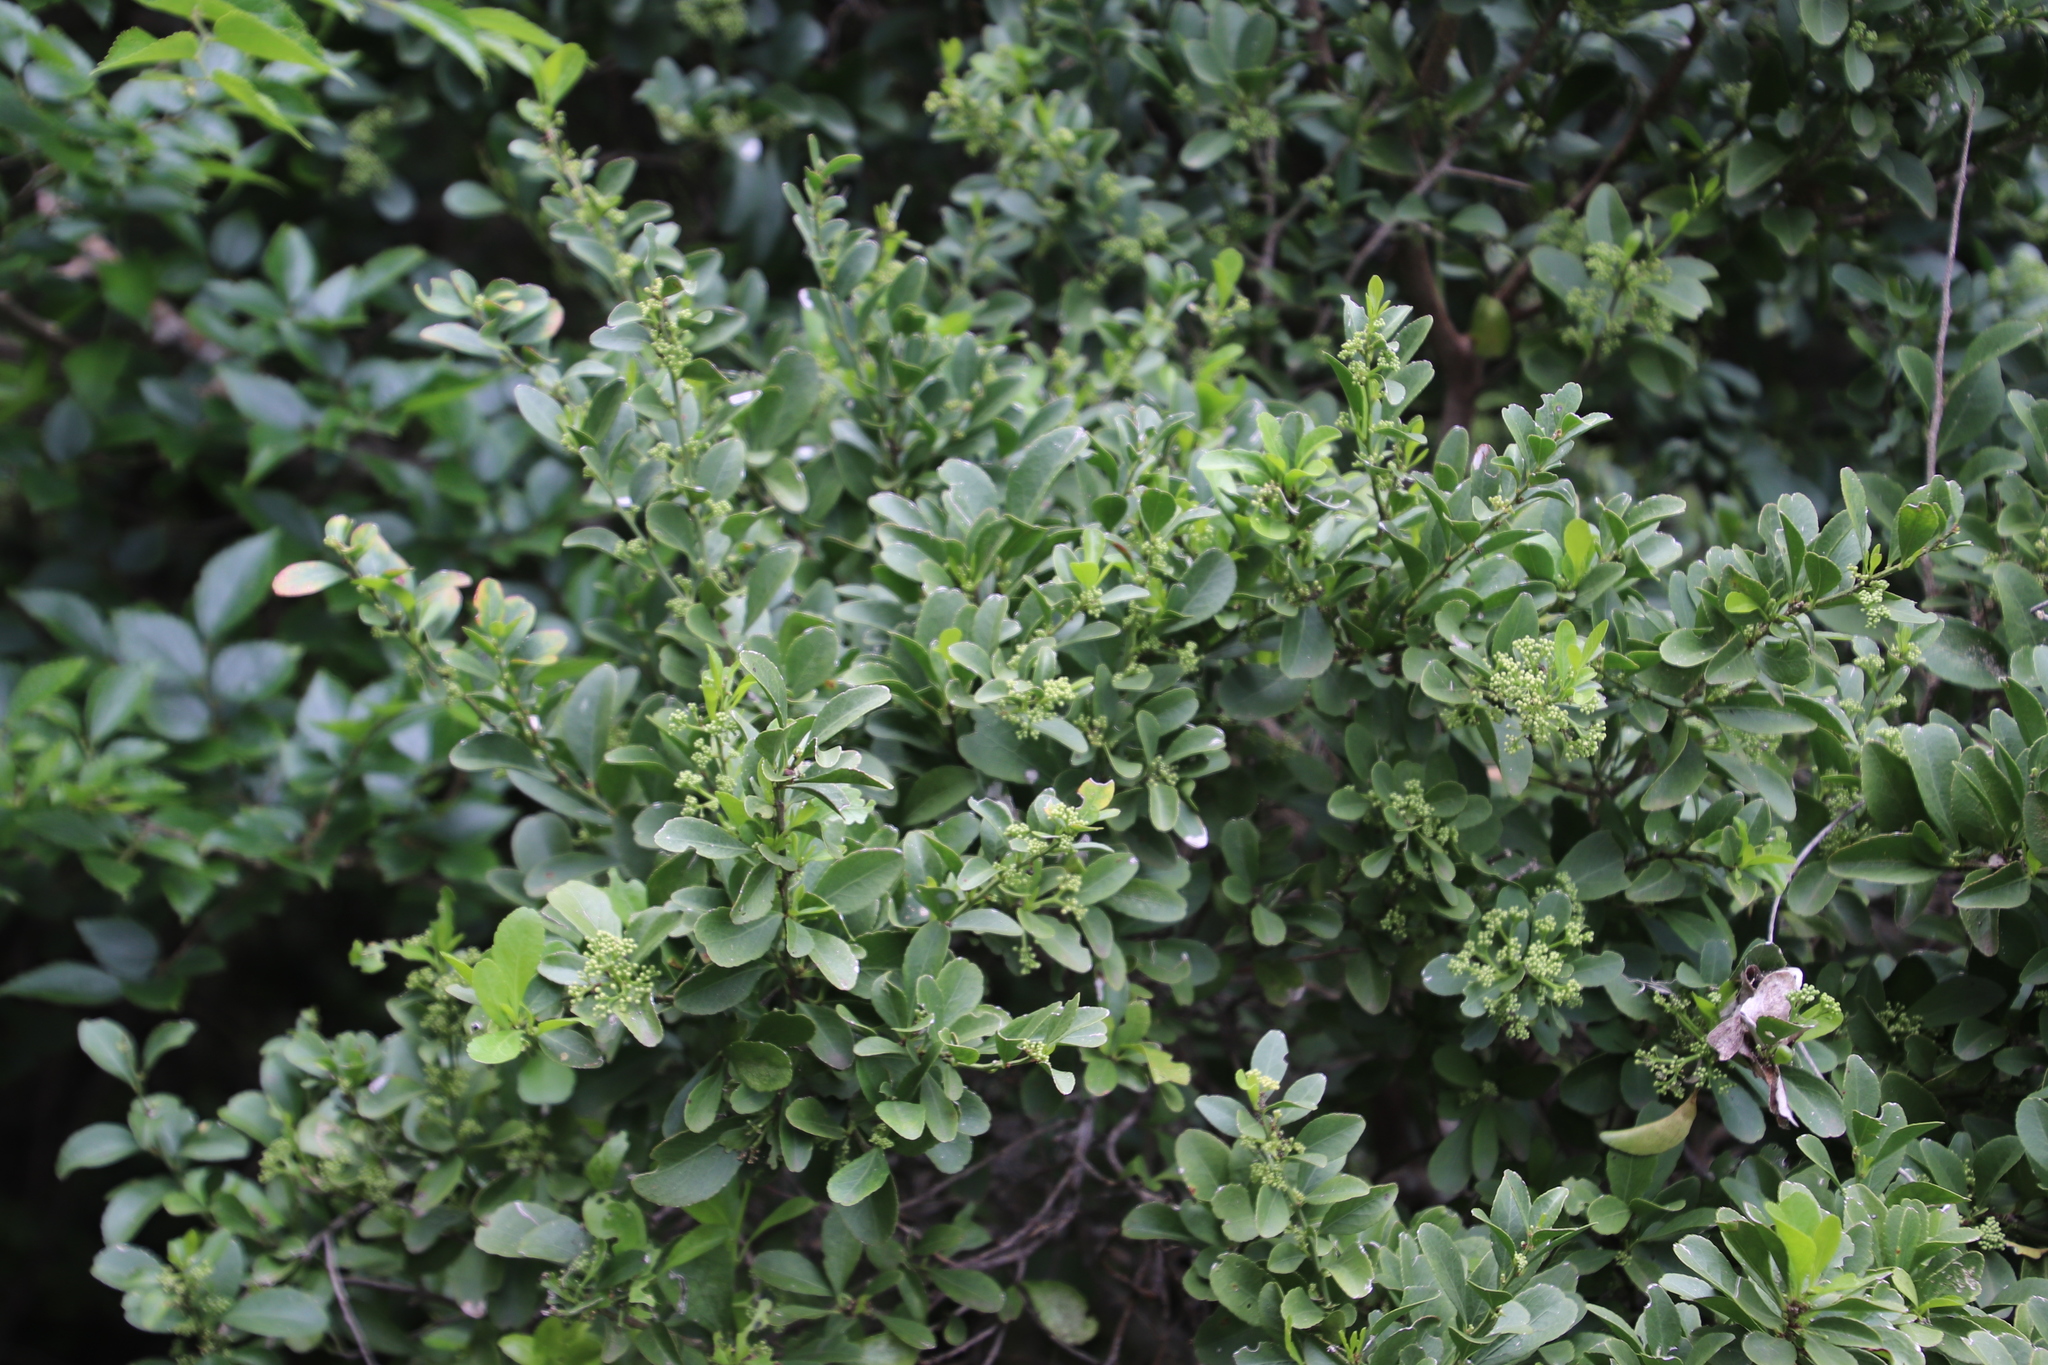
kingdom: Plantae
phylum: Tracheophyta
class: Magnoliopsida
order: Celastrales
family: Celastraceae
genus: Gymnosporia
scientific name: Gymnosporia buxifolia
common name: Common spike-thorn
